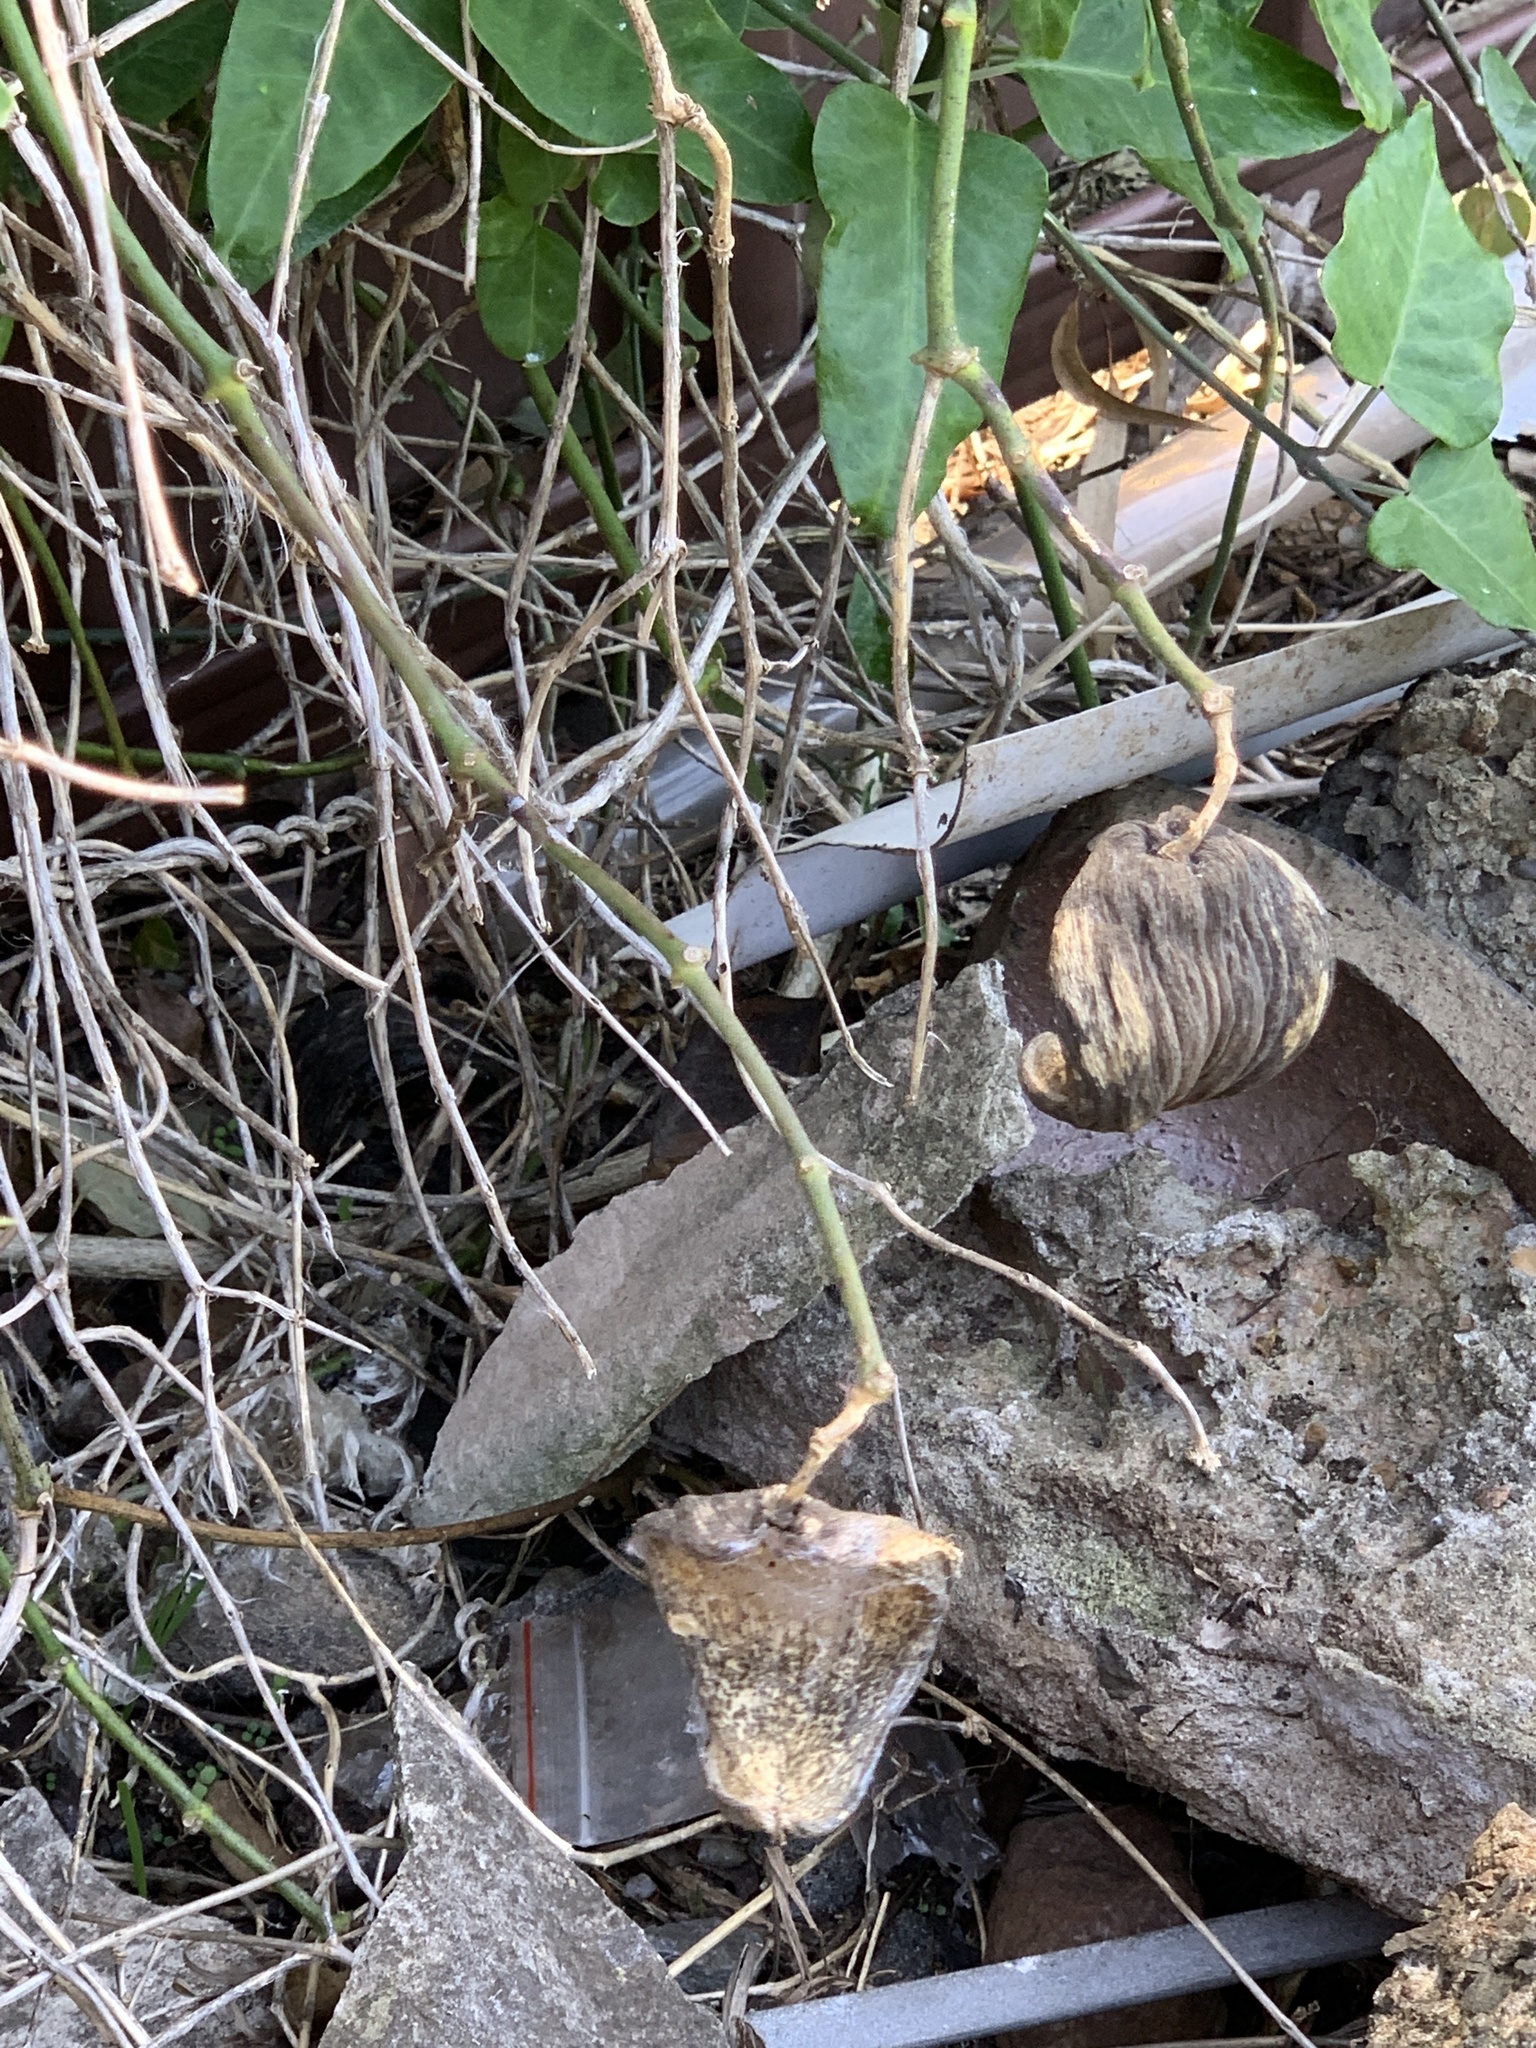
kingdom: Plantae
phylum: Tracheophyta
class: Magnoliopsida
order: Gentianales
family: Apocynaceae
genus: Araujia
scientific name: Araujia sericifera
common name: White bladderflower
